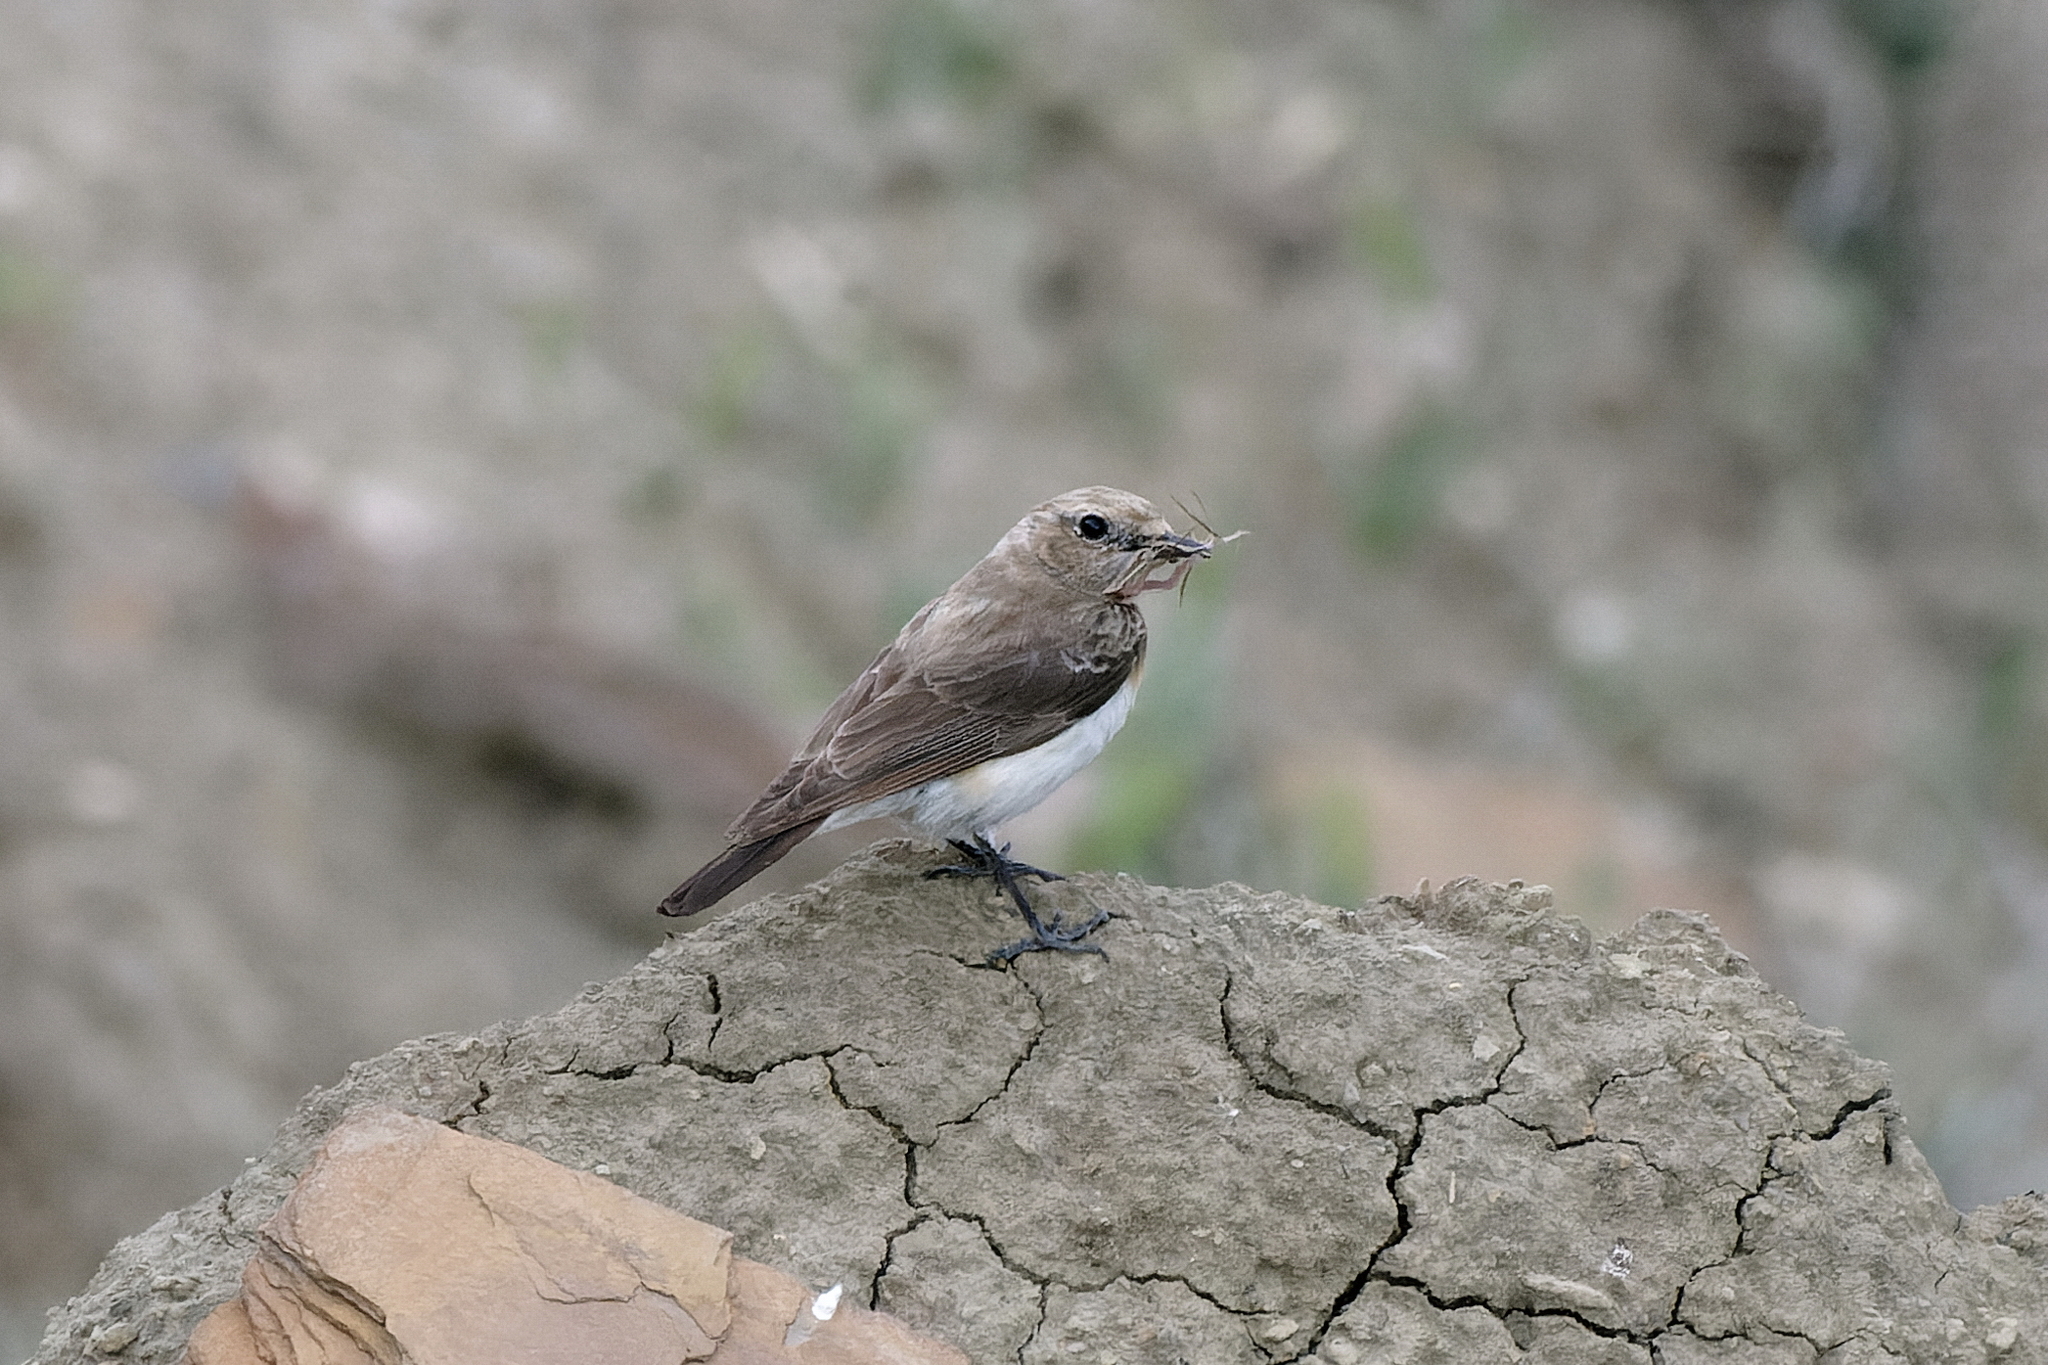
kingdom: Animalia
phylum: Chordata
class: Aves
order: Passeriformes
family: Muscicapidae
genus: Oenanthe
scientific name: Oenanthe pleschanka
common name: Pied wheatear
